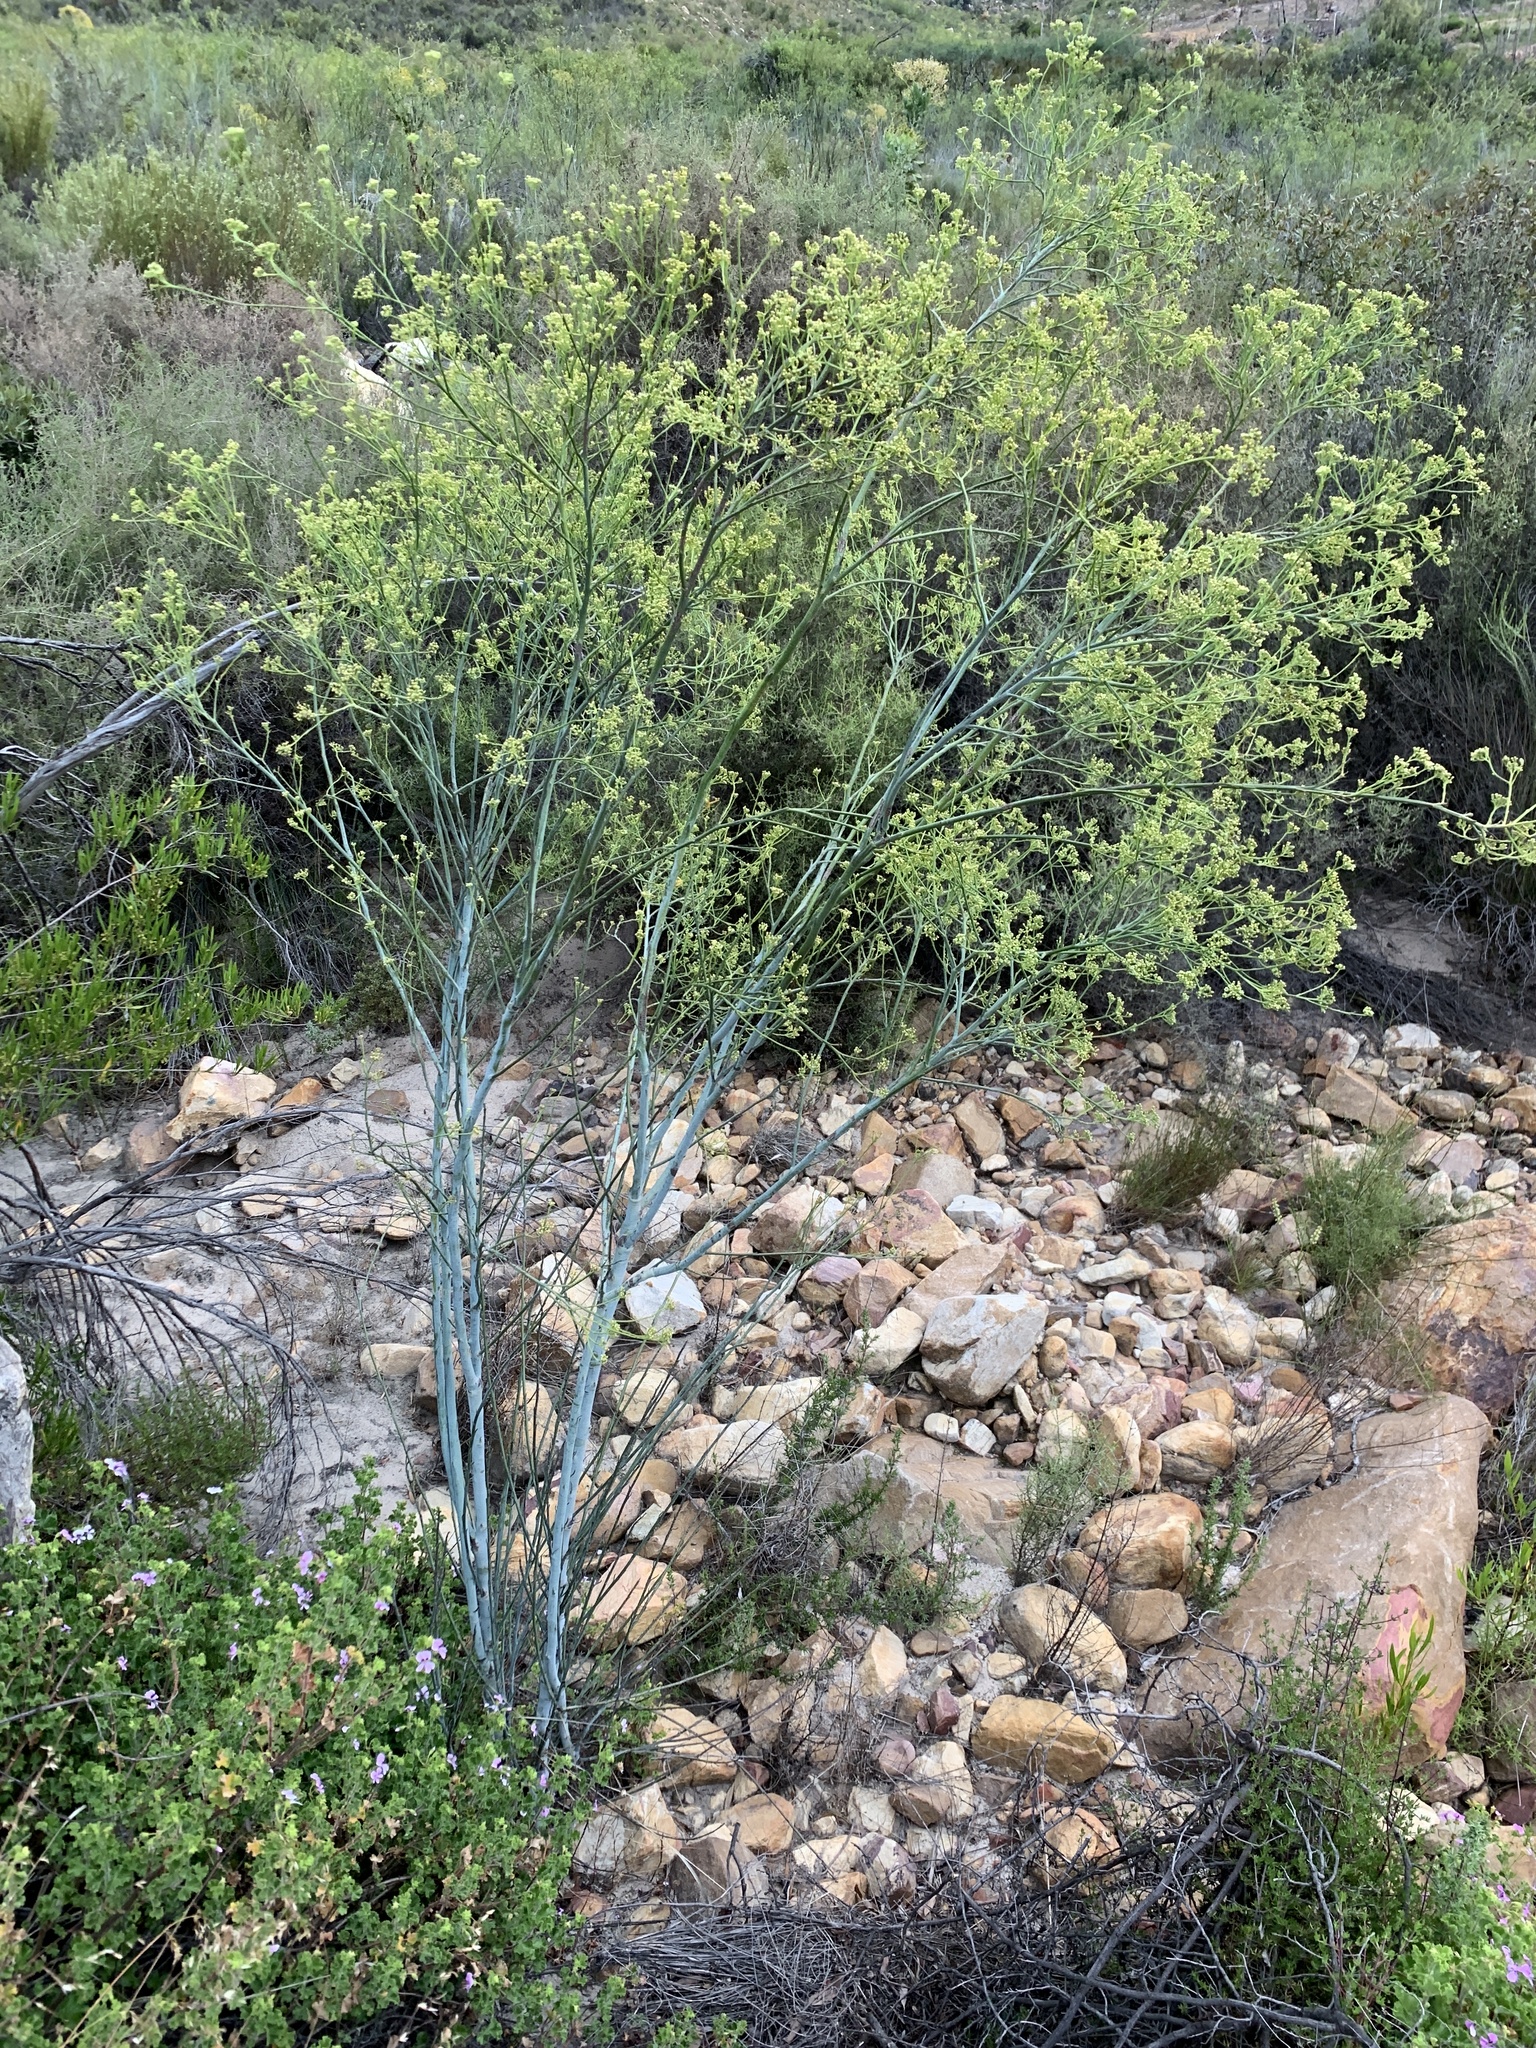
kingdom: Plantae
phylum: Tracheophyta
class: Magnoliopsida
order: Santalales
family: Thesiaceae
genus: Thesium
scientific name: Thesium strictum
